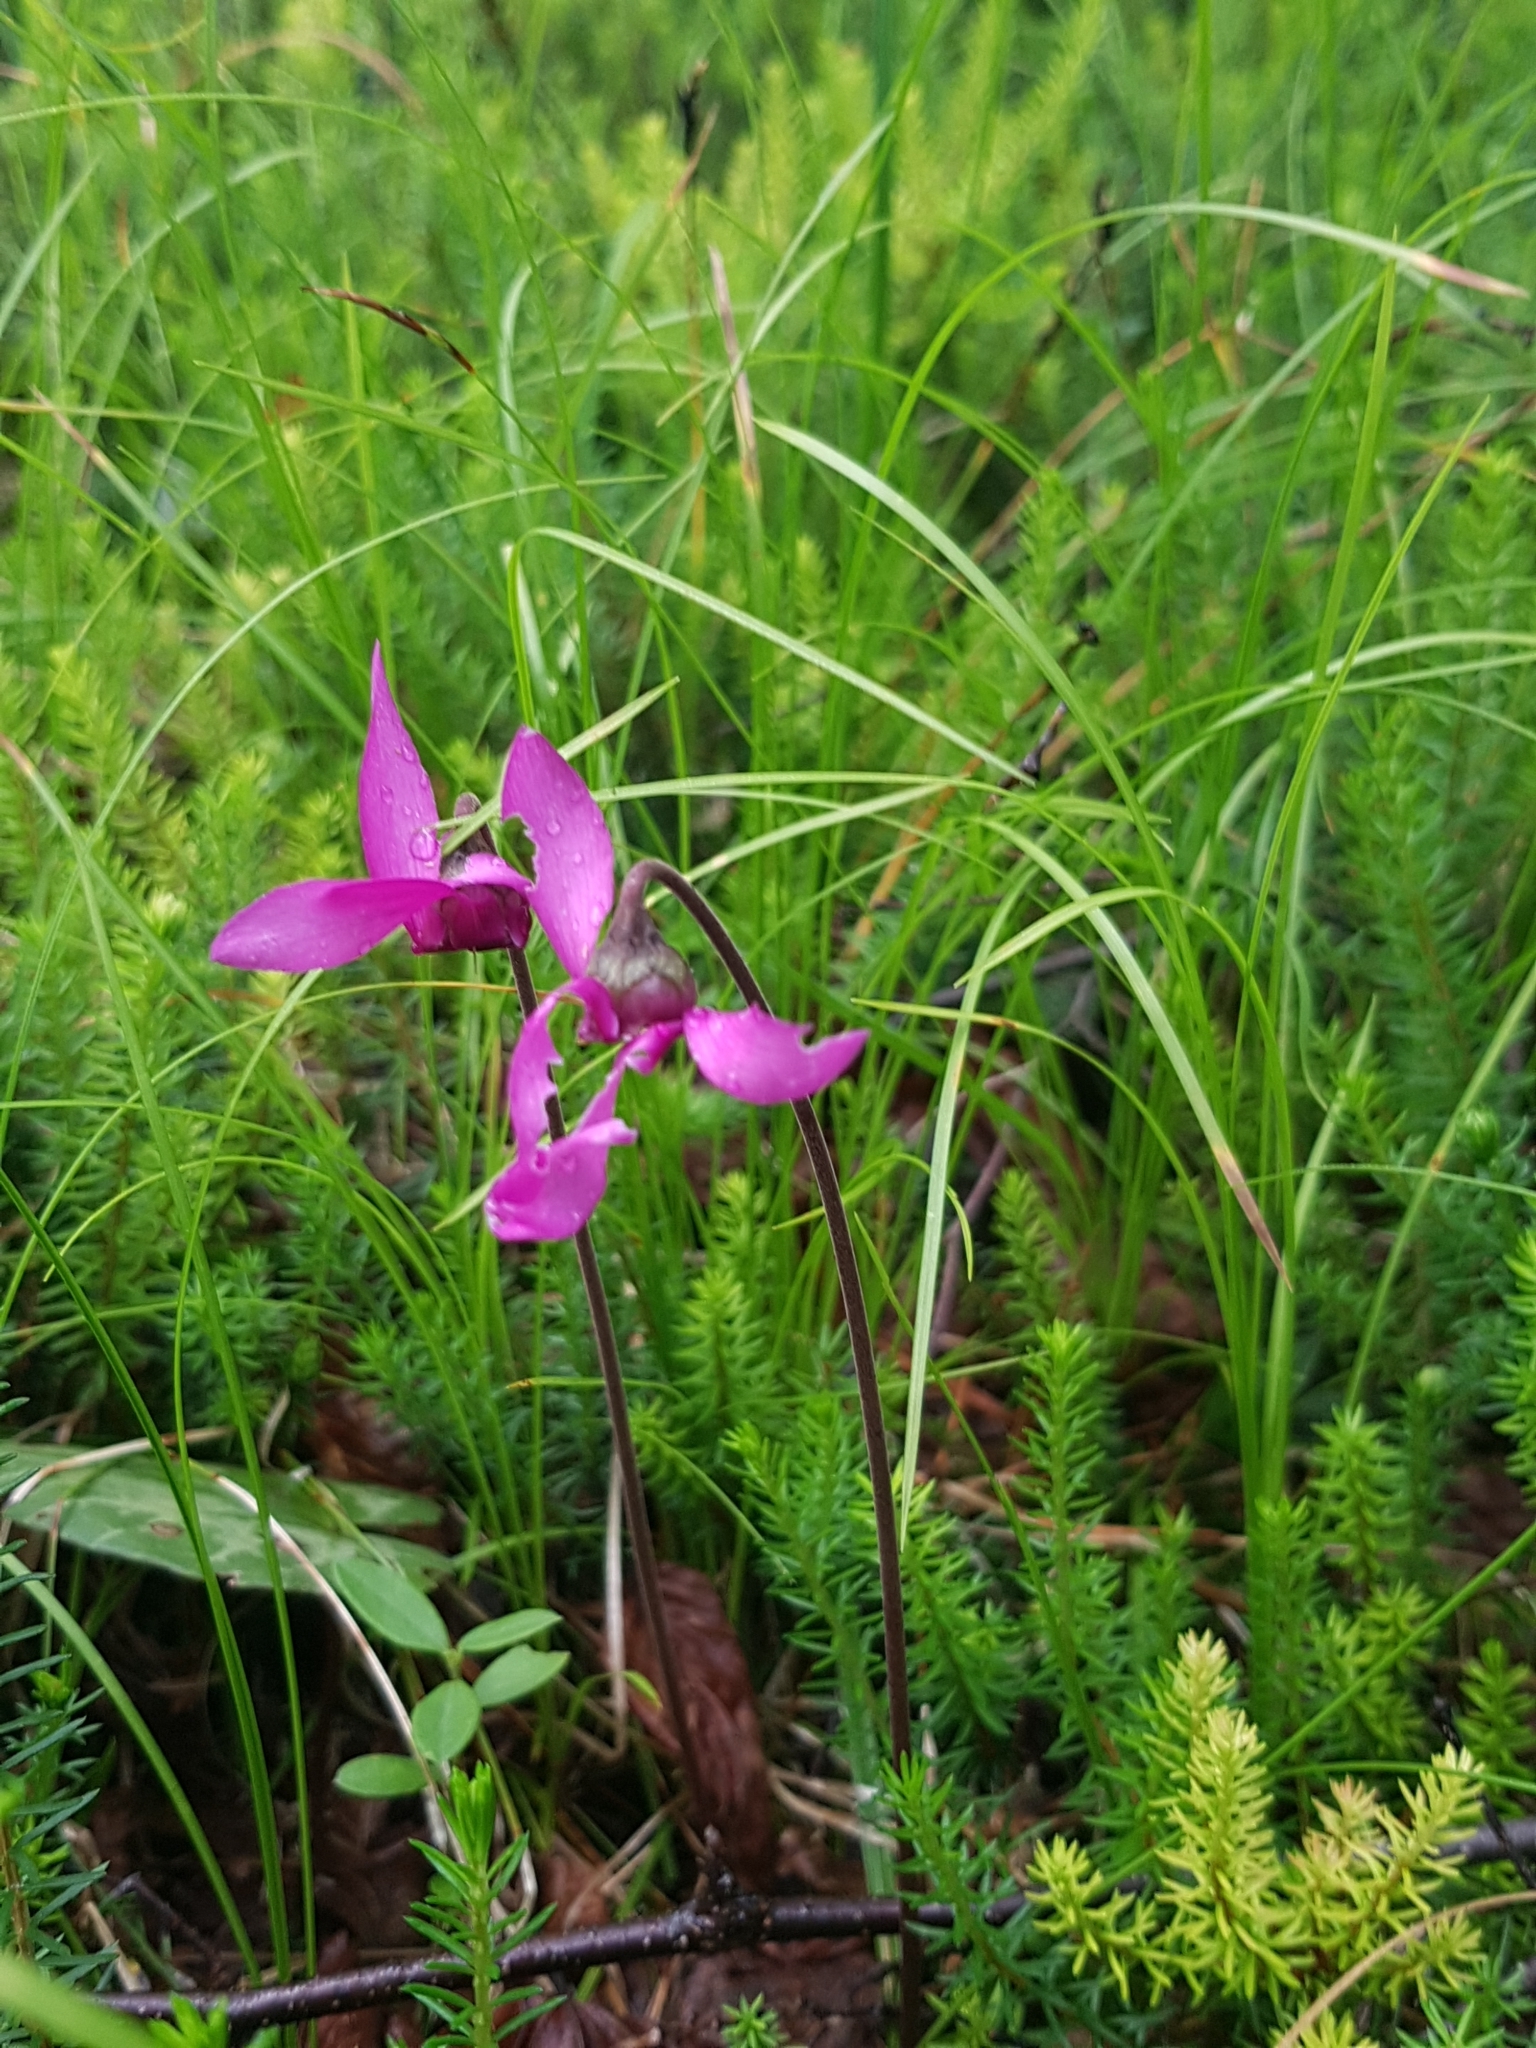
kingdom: Plantae
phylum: Tracheophyta
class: Magnoliopsida
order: Ericales
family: Primulaceae
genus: Cyclamen
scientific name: Cyclamen purpurascens
